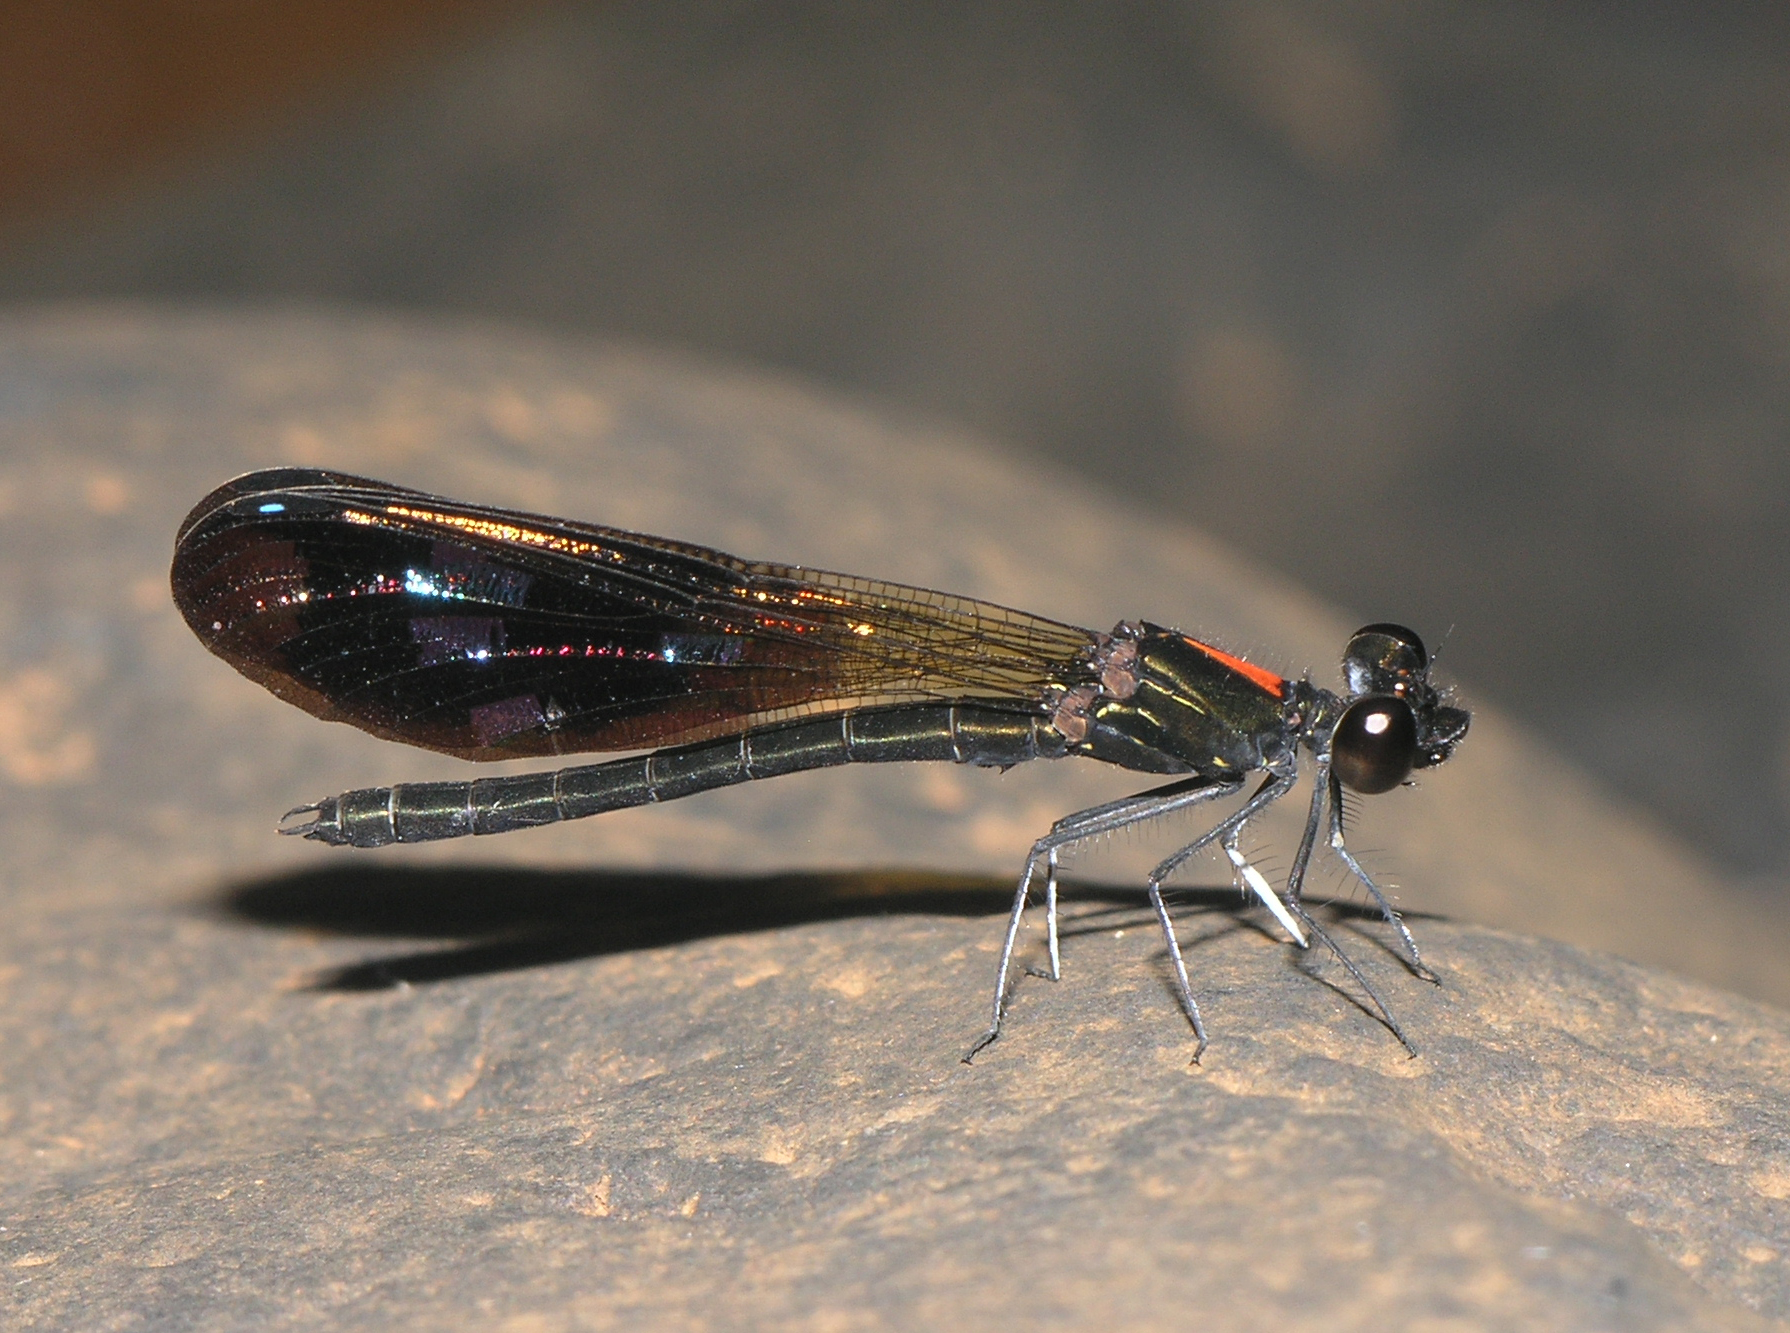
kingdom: Animalia
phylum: Arthropoda
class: Insecta
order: Odonata
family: Chlorocyphidae
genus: Aristocypha
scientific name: Aristocypha fulgipennis
